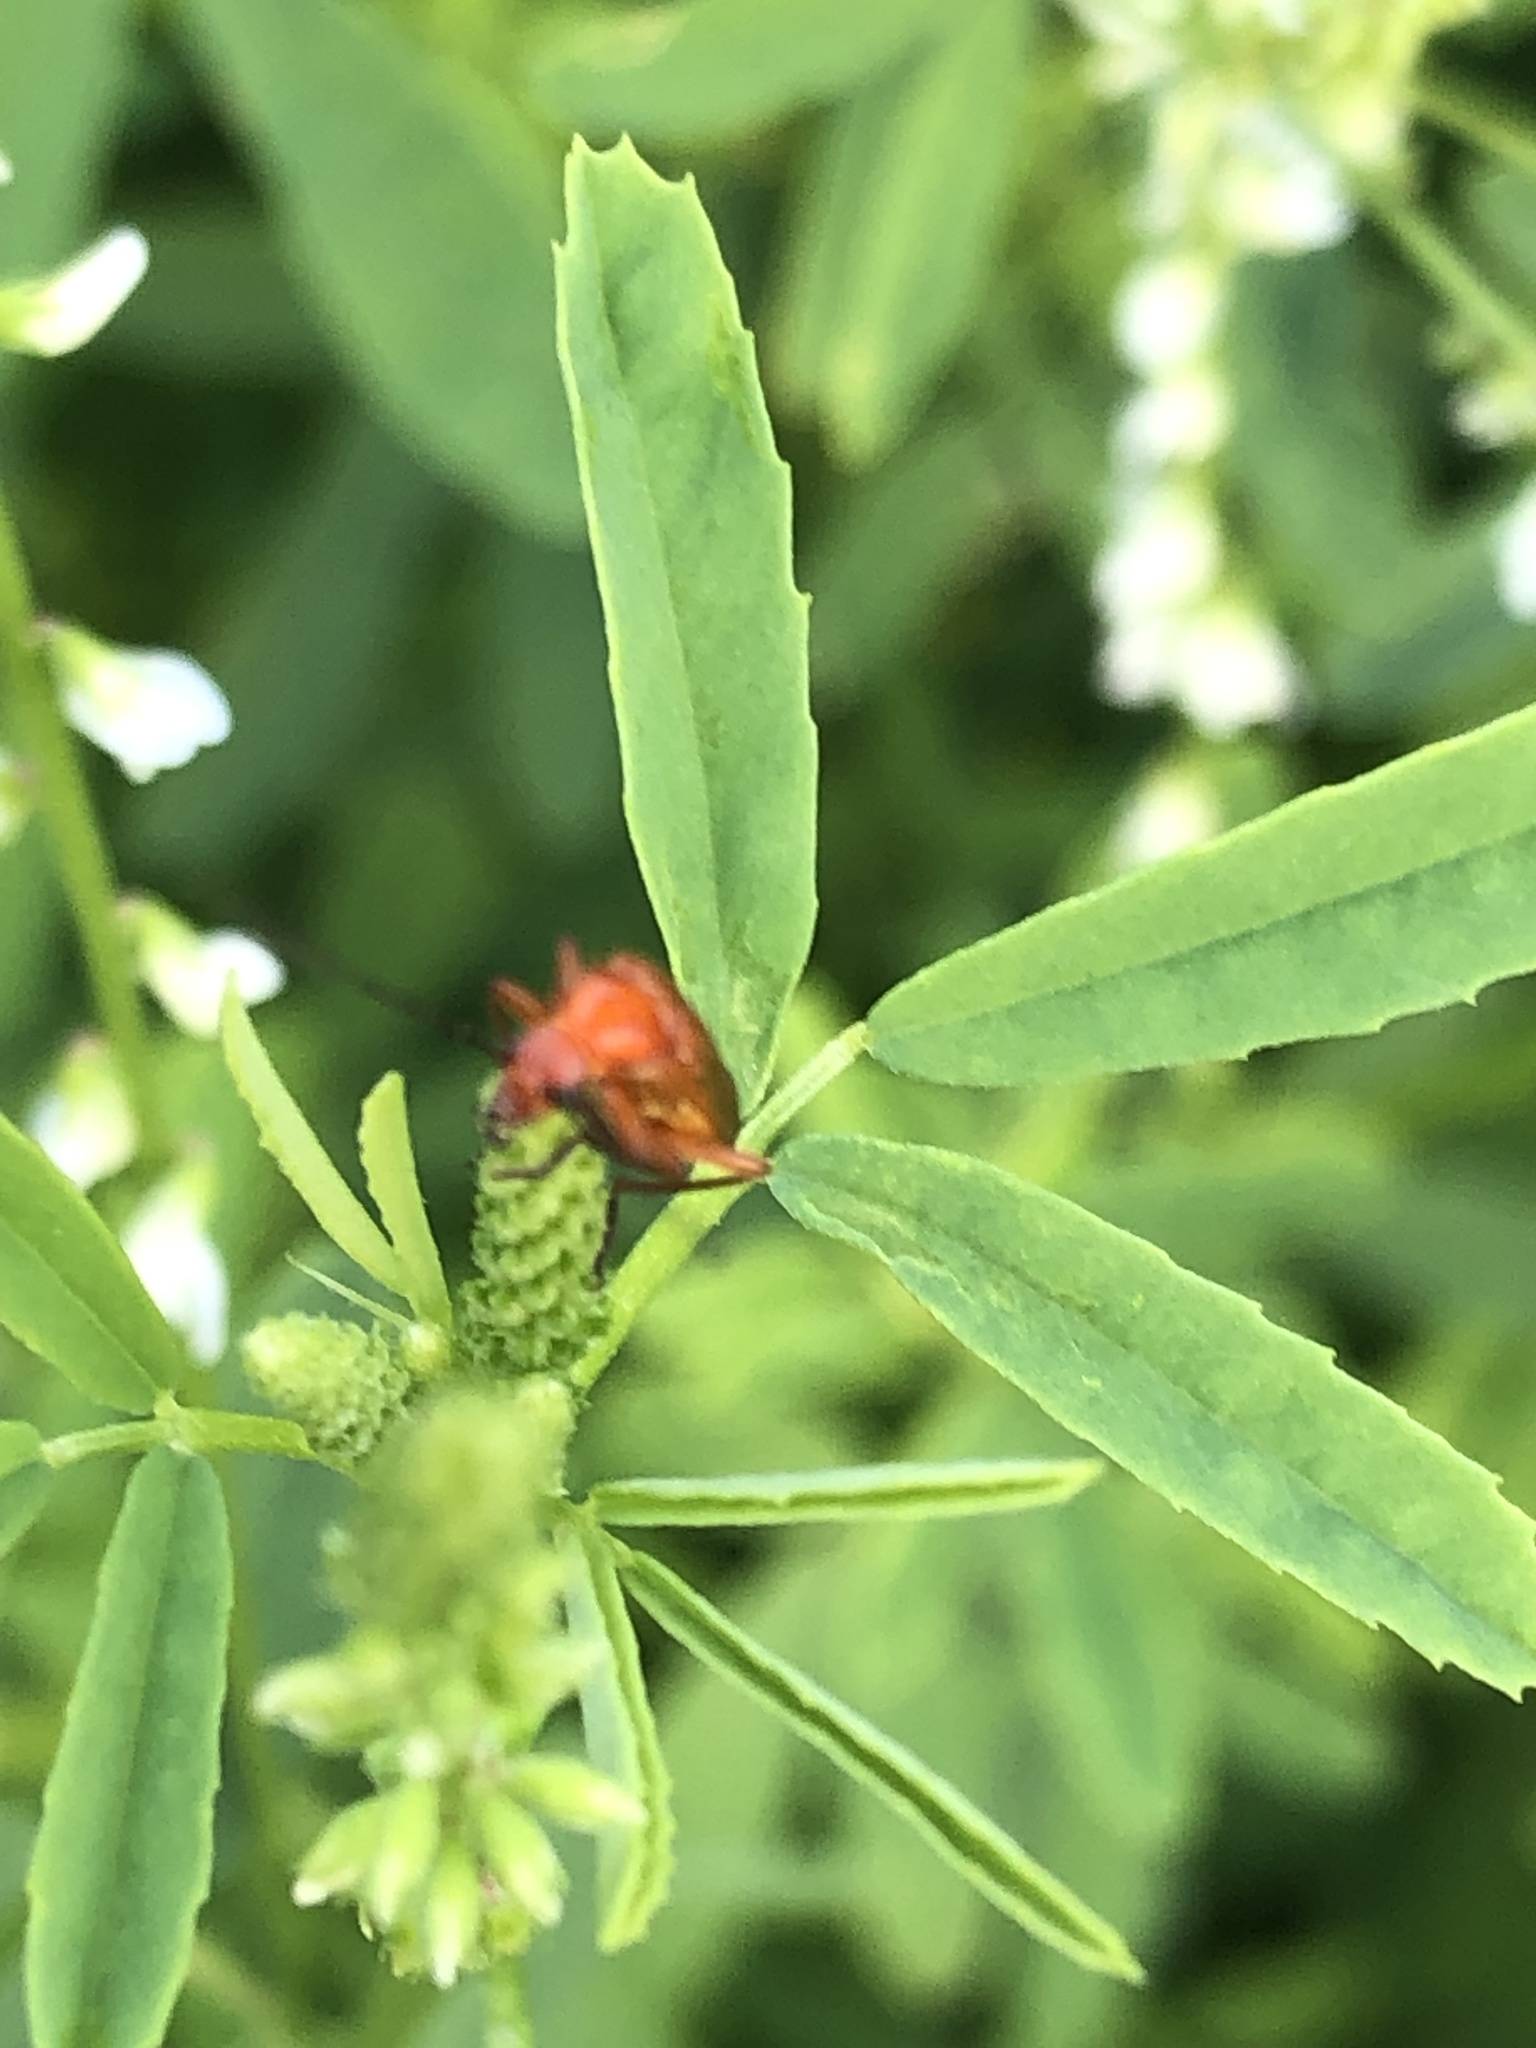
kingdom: Animalia
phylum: Arthropoda
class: Insecta
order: Coleoptera
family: Cantharidae
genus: Rhagonycha
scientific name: Rhagonycha fulva
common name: Common red soldier beetle
